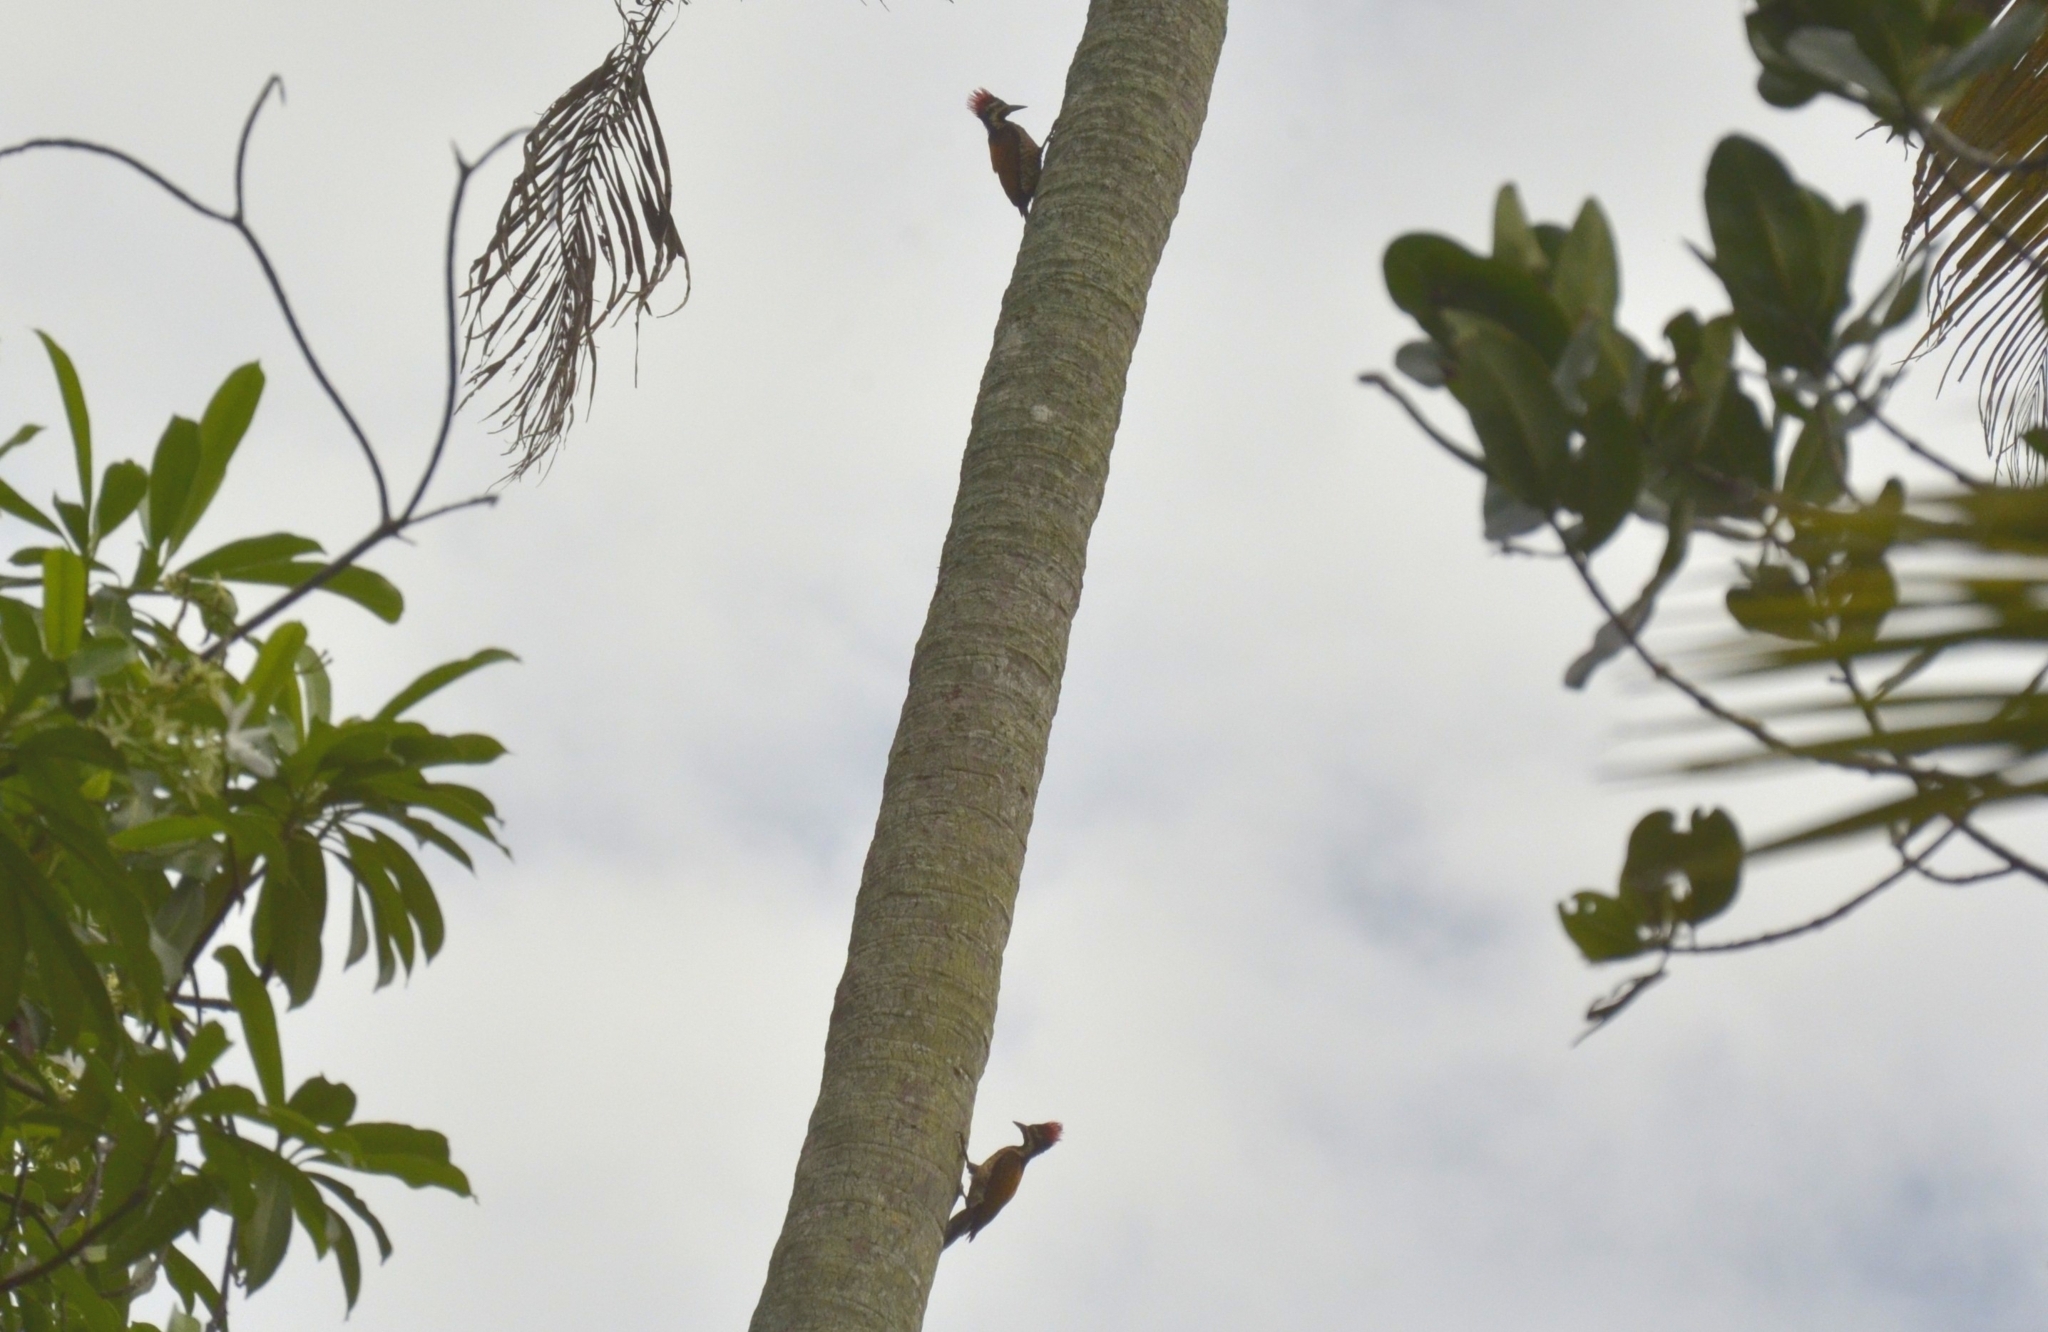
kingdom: Animalia
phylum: Chordata
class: Aves
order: Piciformes
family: Picidae
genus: Dinopium
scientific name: Dinopium benghalense
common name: Black-rumped flameback
